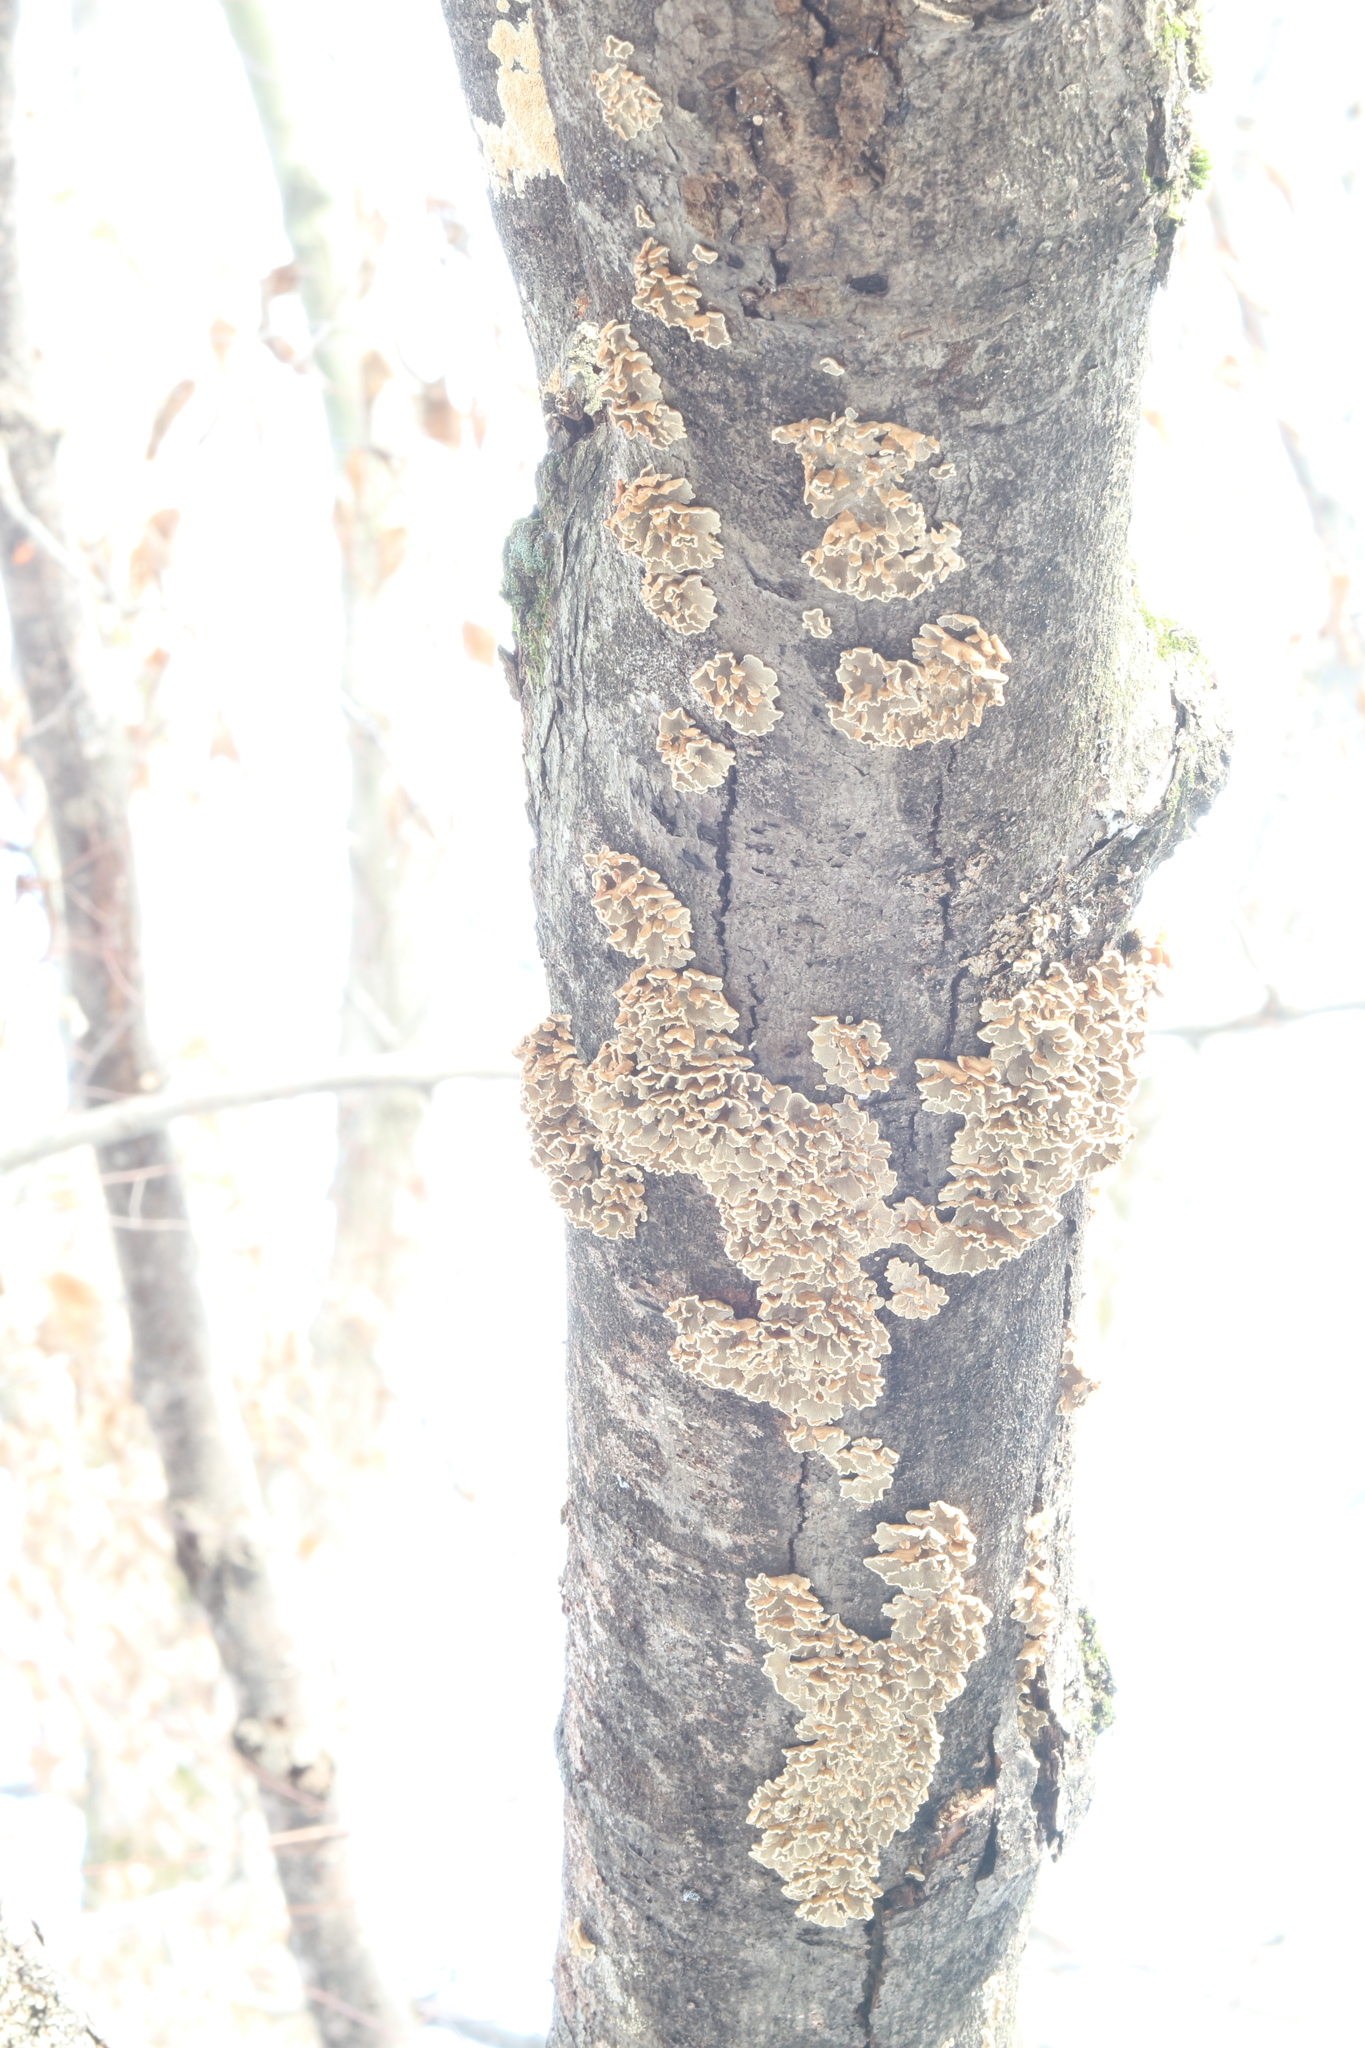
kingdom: Fungi
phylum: Basidiomycota
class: Agaricomycetes
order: Amylocorticiales
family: Amylocorticiaceae
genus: Plicaturopsis
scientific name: Plicaturopsis crispa
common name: Crimped gill
